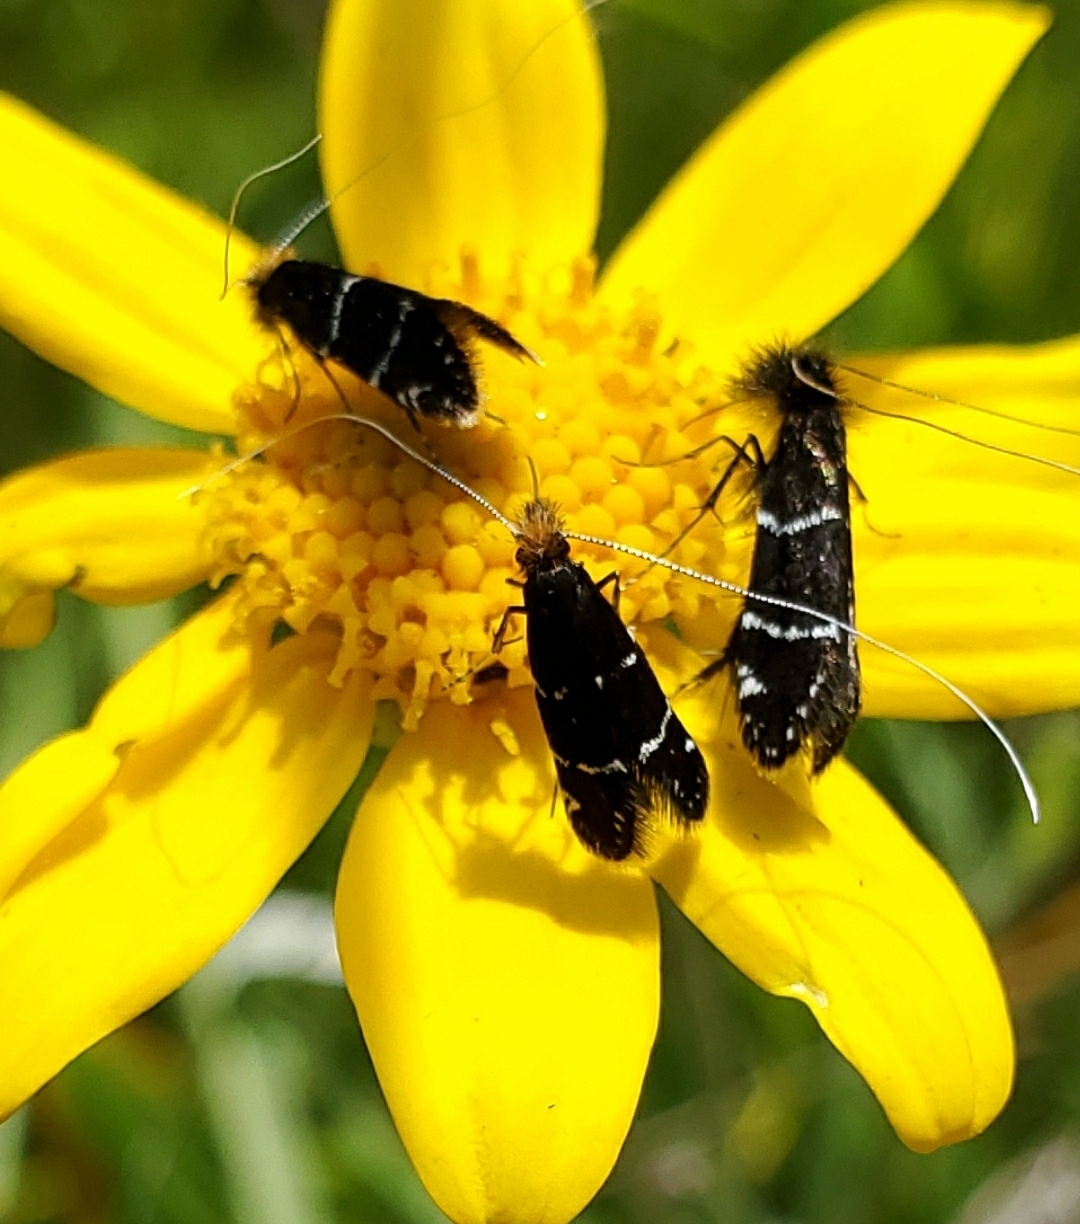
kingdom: Animalia
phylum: Arthropoda
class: Insecta
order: Lepidoptera
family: Adelidae
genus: Adela
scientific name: Adela septentrionella
